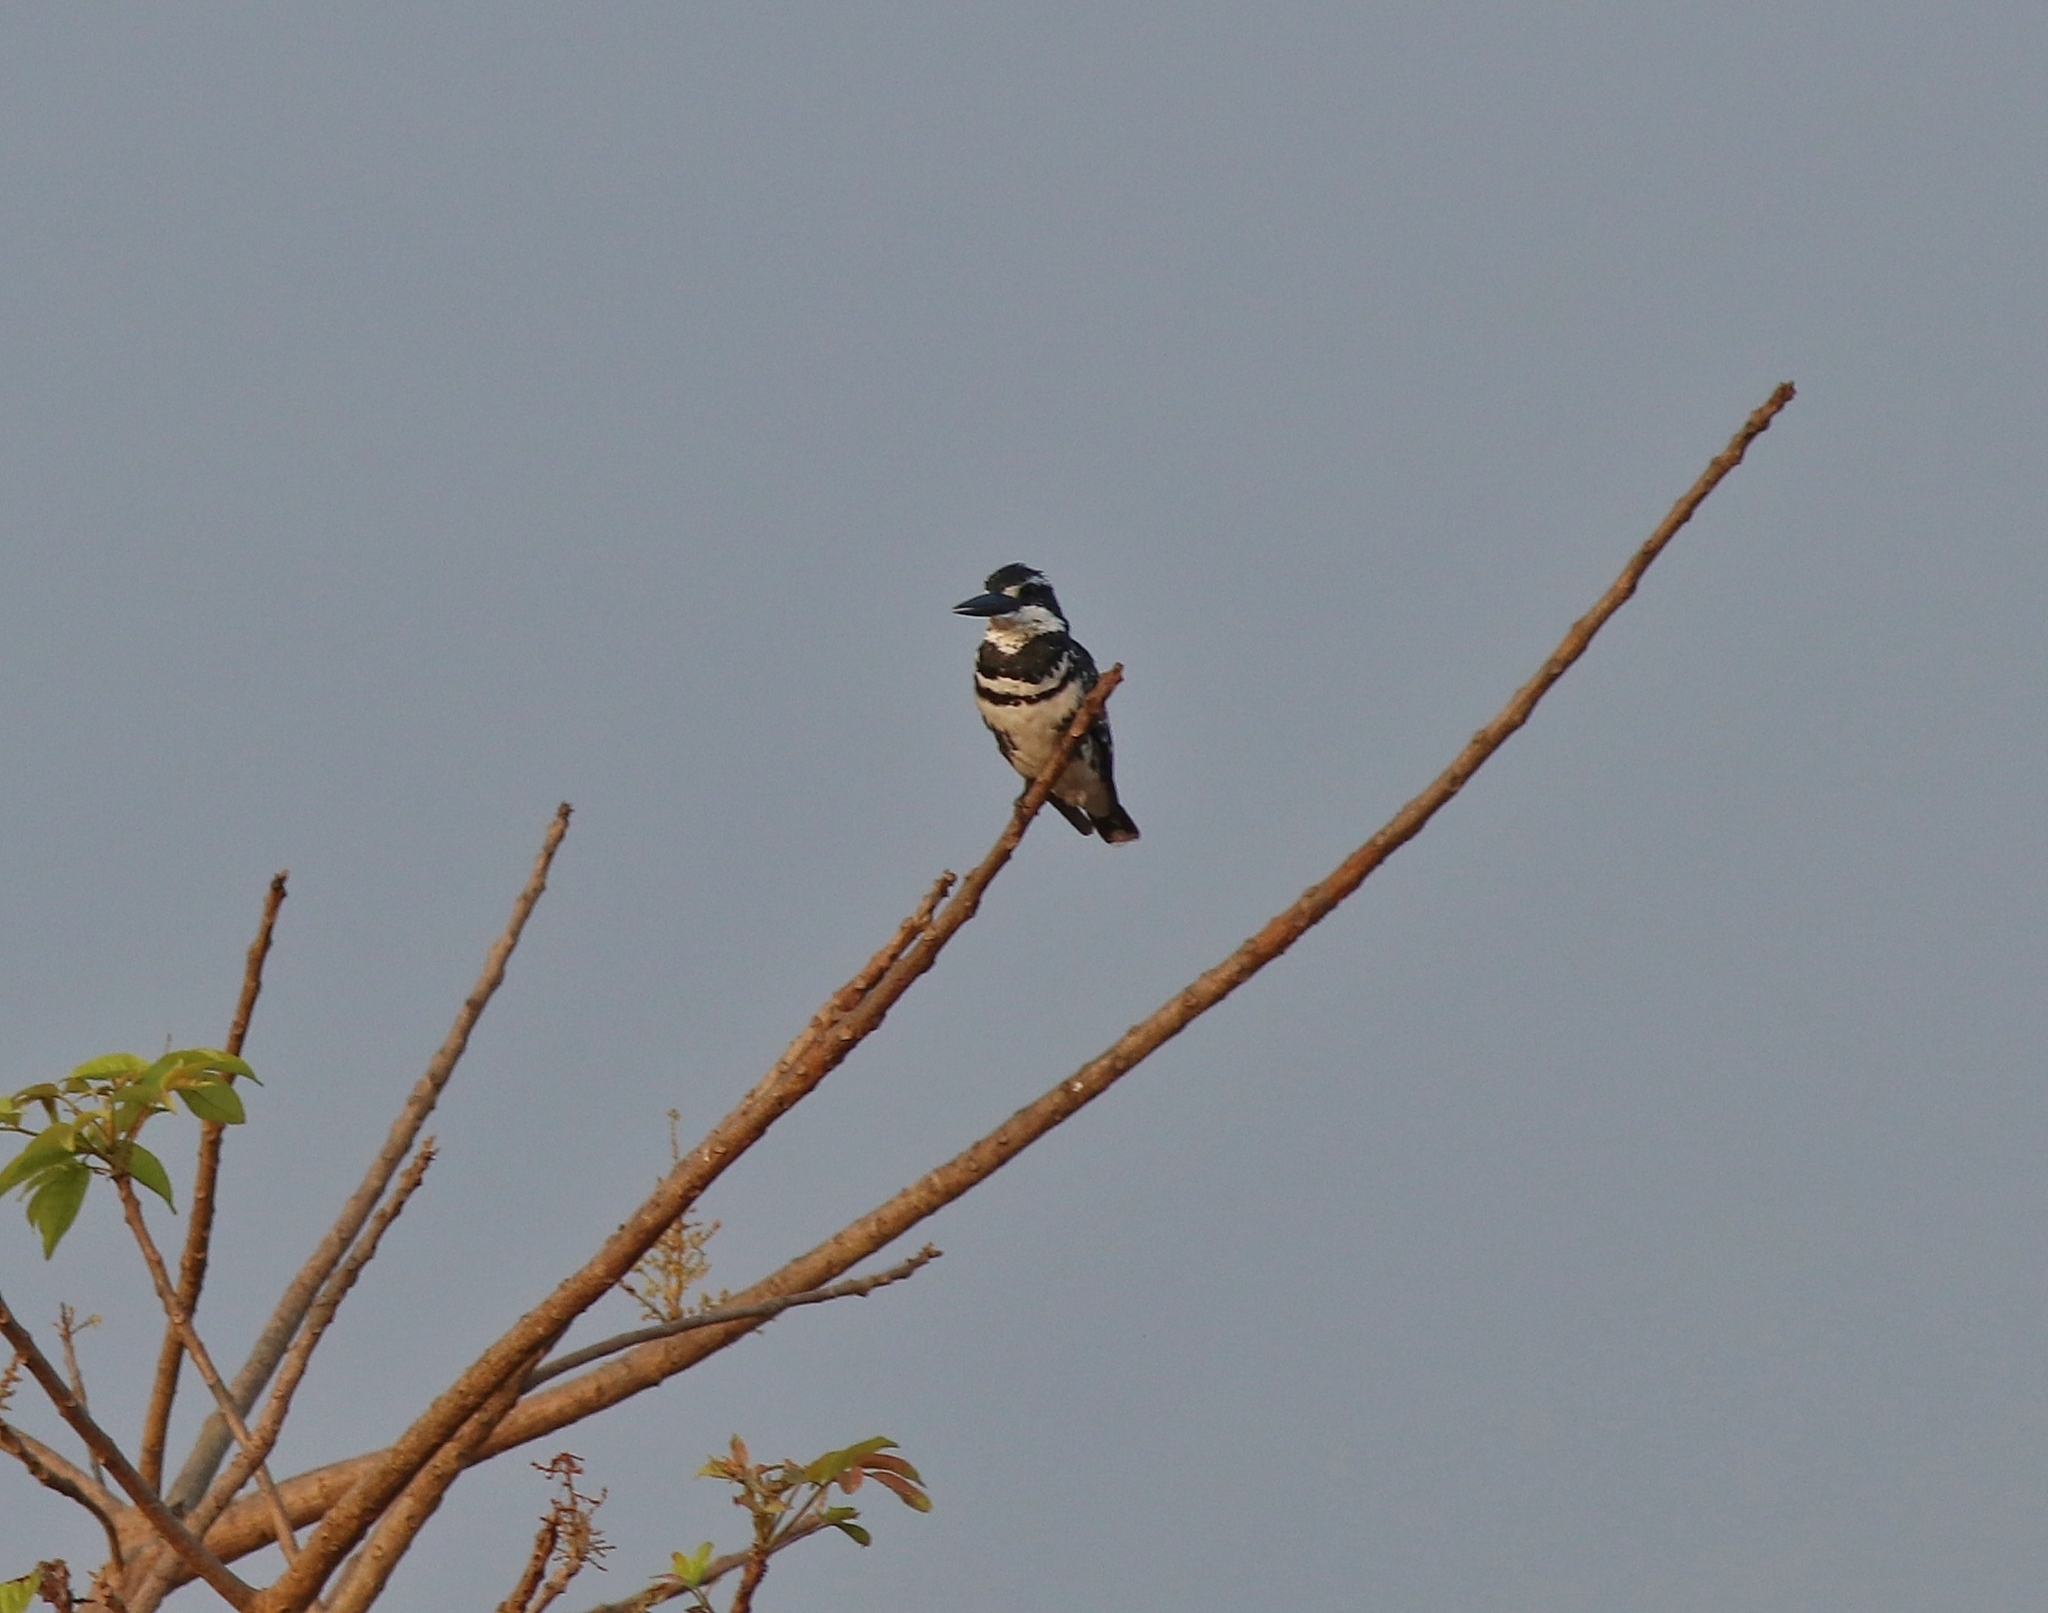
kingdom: Animalia
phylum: Chordata
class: Aves
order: Coraciiformes
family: Alcedinidae
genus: Ceryle
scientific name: Ceryle rudis
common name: Pied kingfisher
